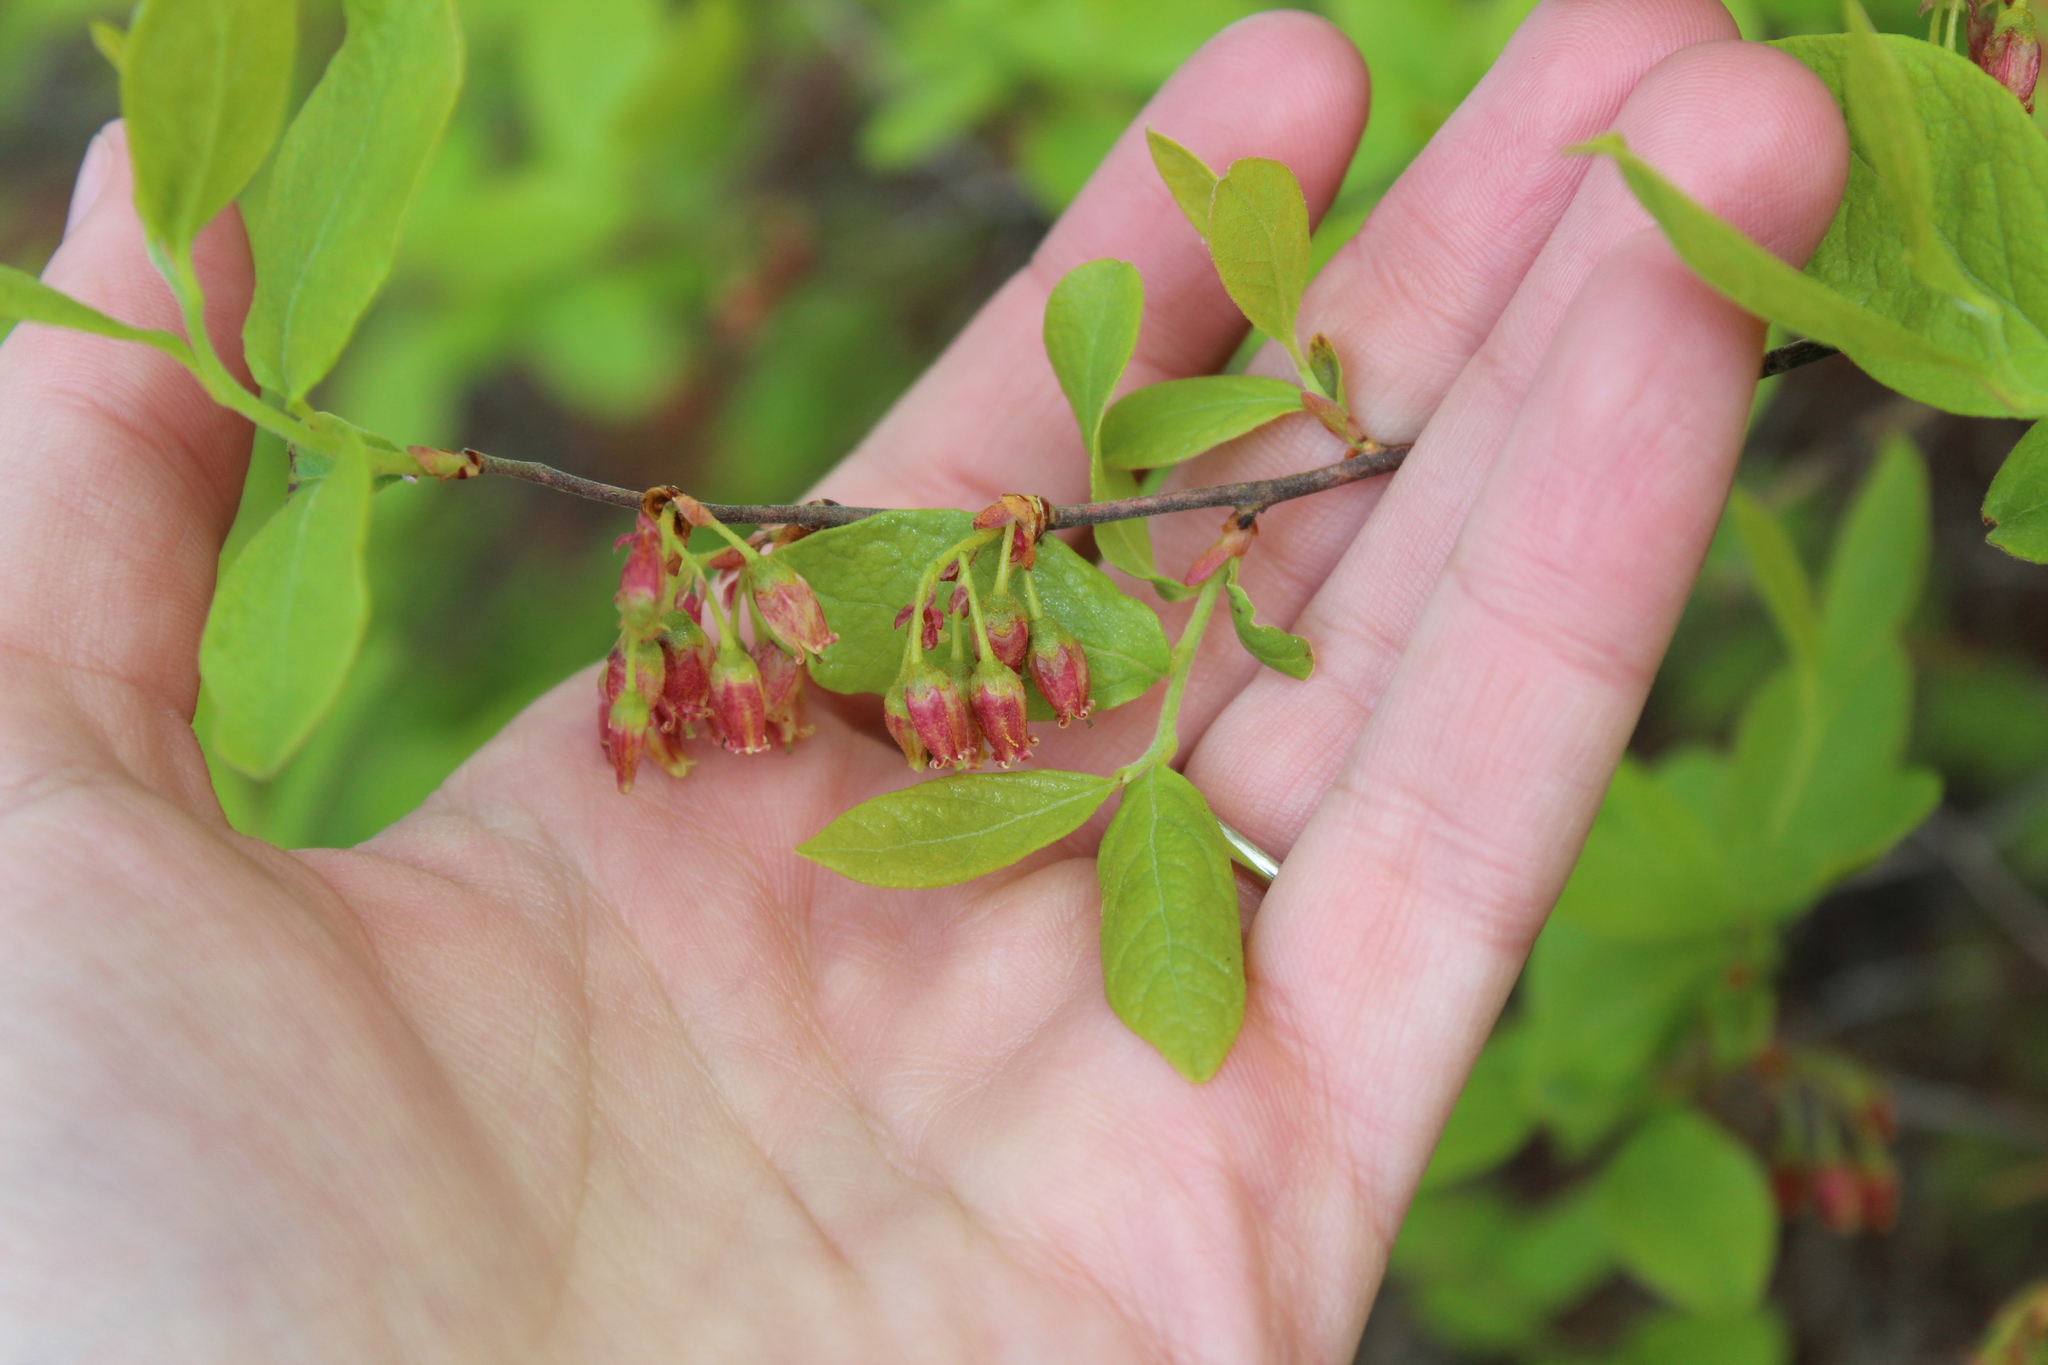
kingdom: Plantae
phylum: Tracheophyta
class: Magnoliopsida
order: Ericales
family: Ericaceae
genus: Gaylussacia
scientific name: Gaylussacia baccata
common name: Black huckleberry
